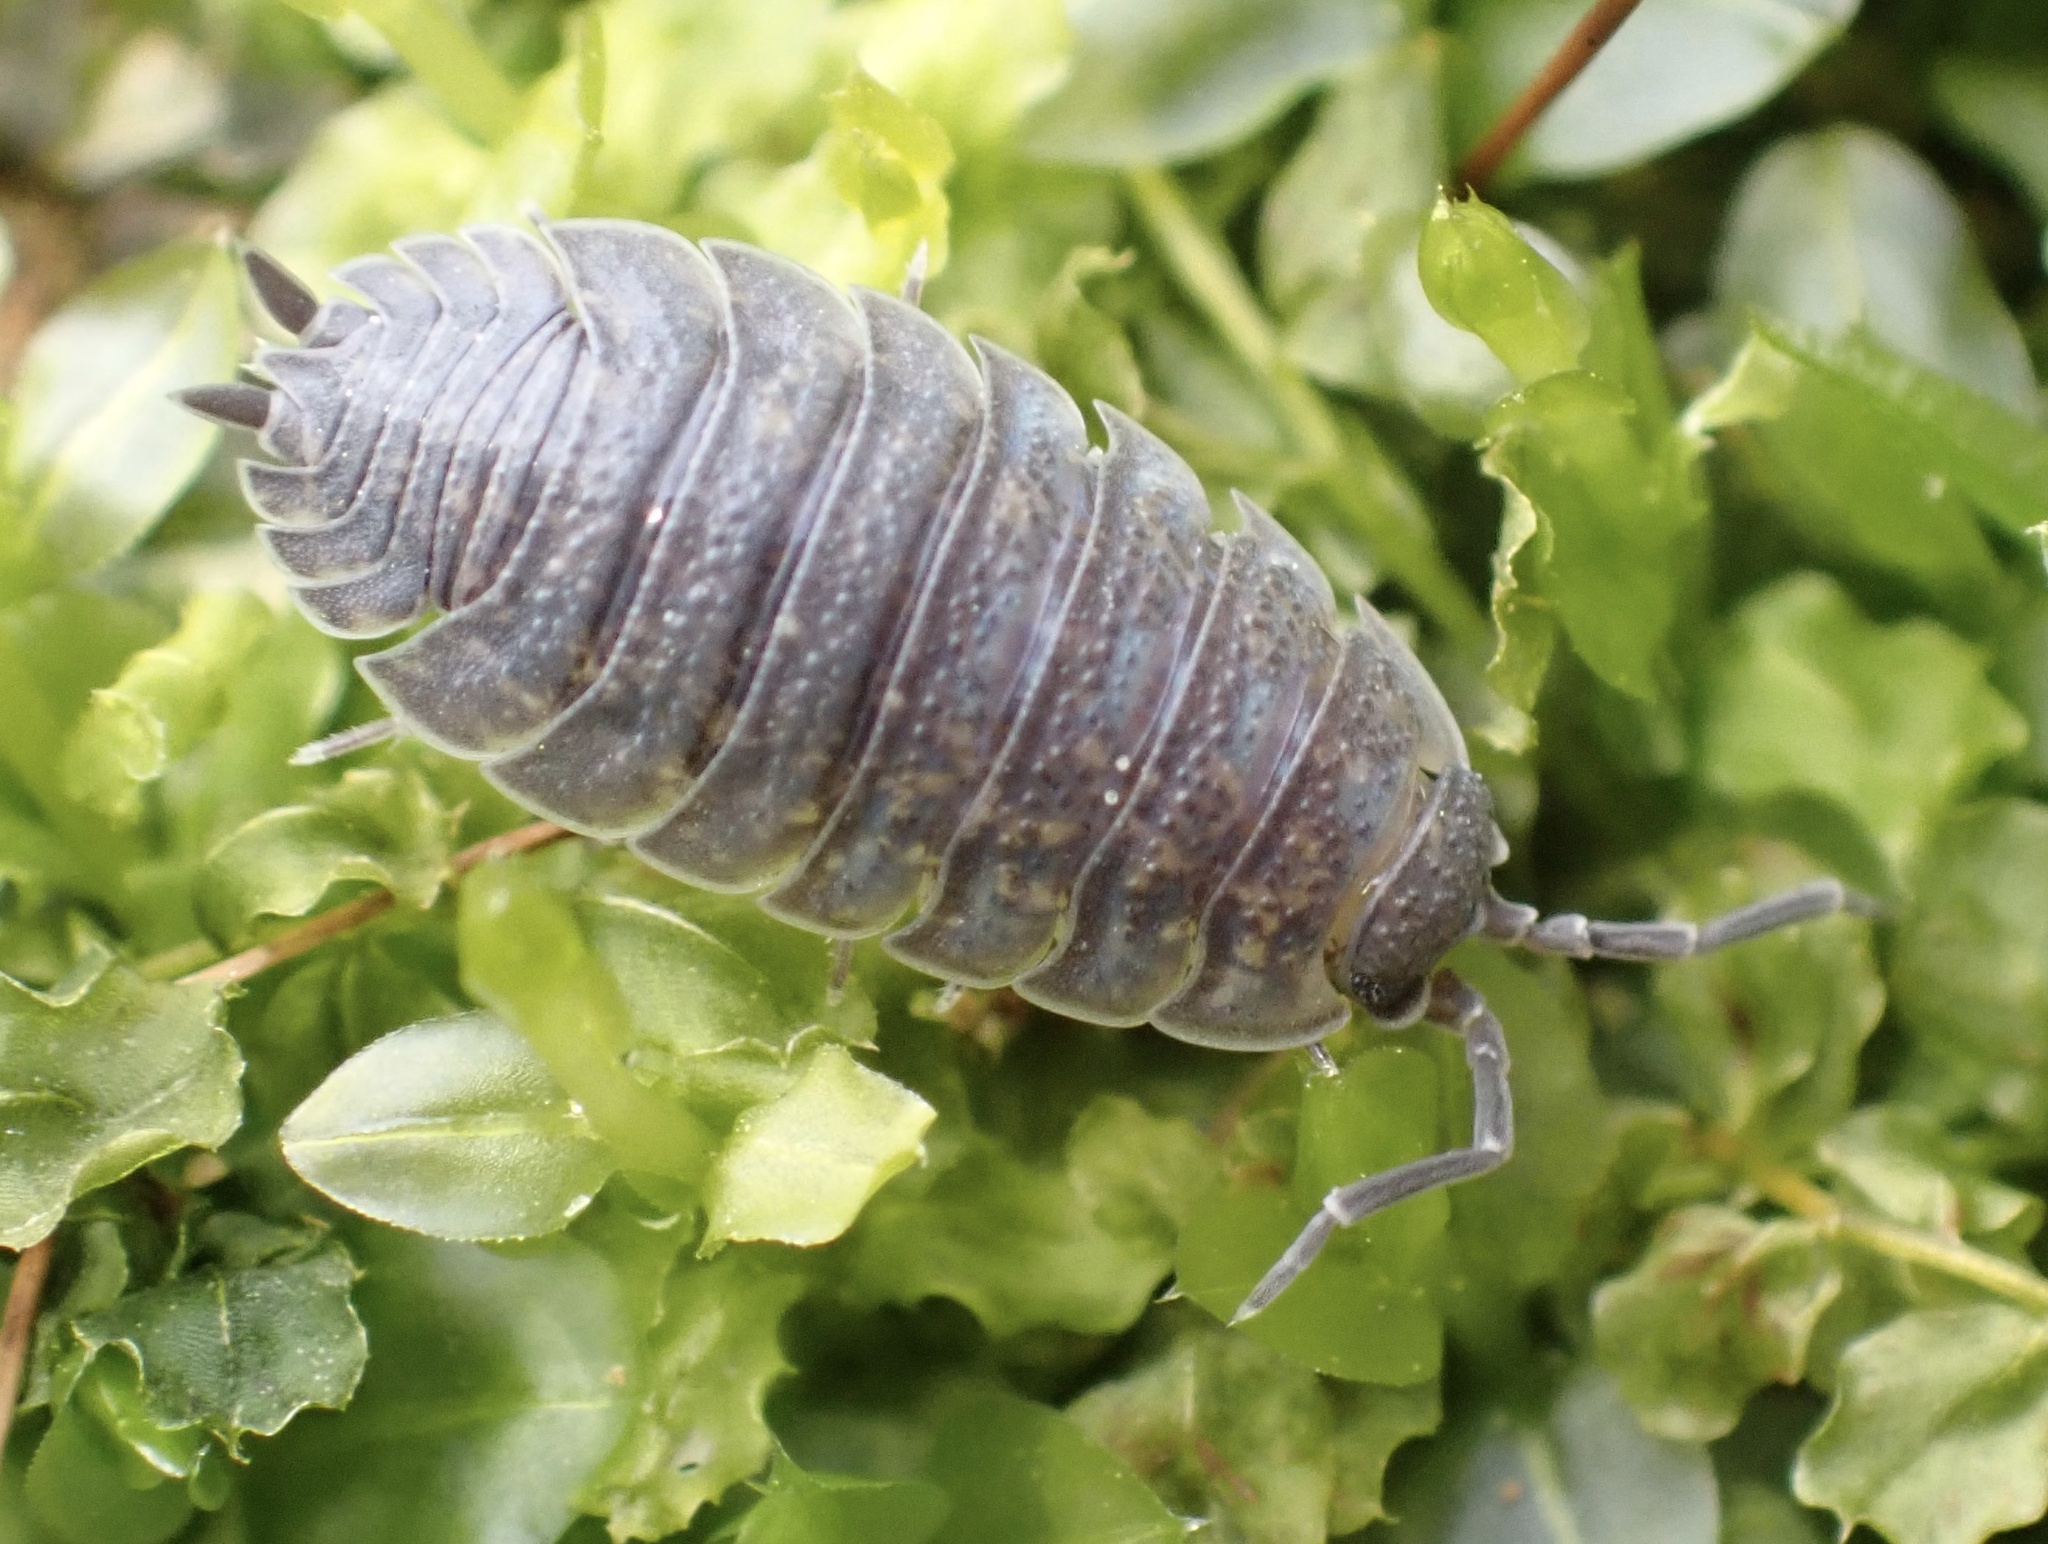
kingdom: Animalia
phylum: Arthropoda
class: Malacostraca
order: Isopoda
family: Porcellionidae
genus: Porcellio
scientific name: Porcellio scaber
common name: Common rough woodlouse
